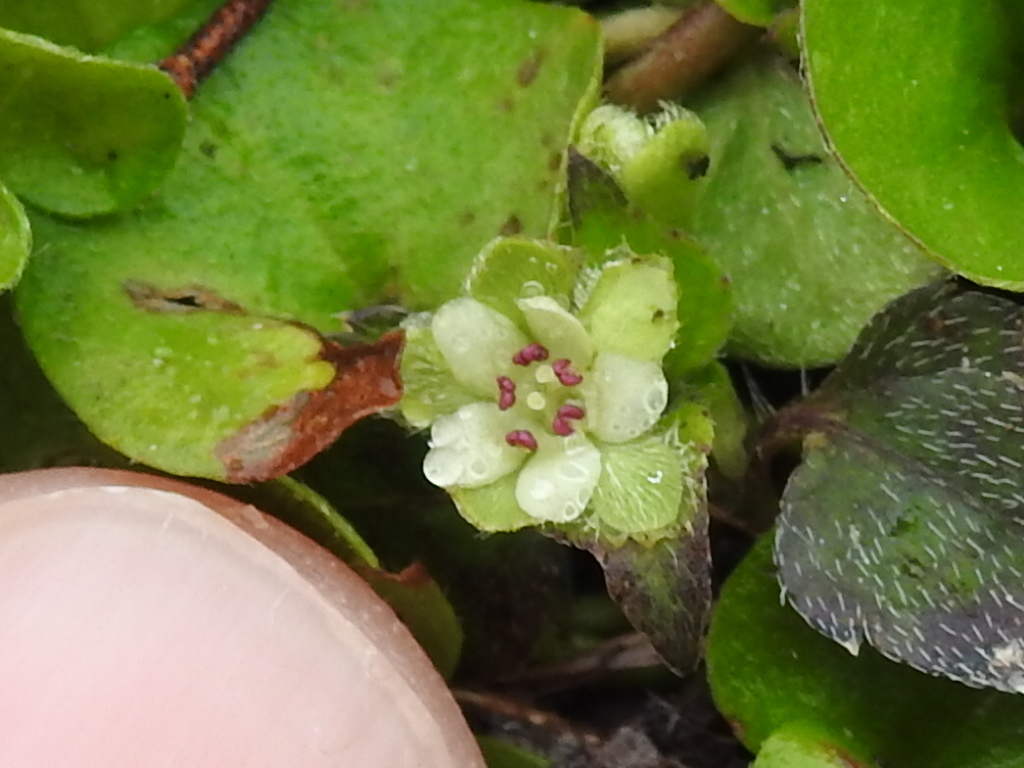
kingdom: Plantae
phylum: Tracheophyta
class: Magnoliopsida
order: Solanales
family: Convolvulaceae
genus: Dichondra
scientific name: Dichondra carolinensis
